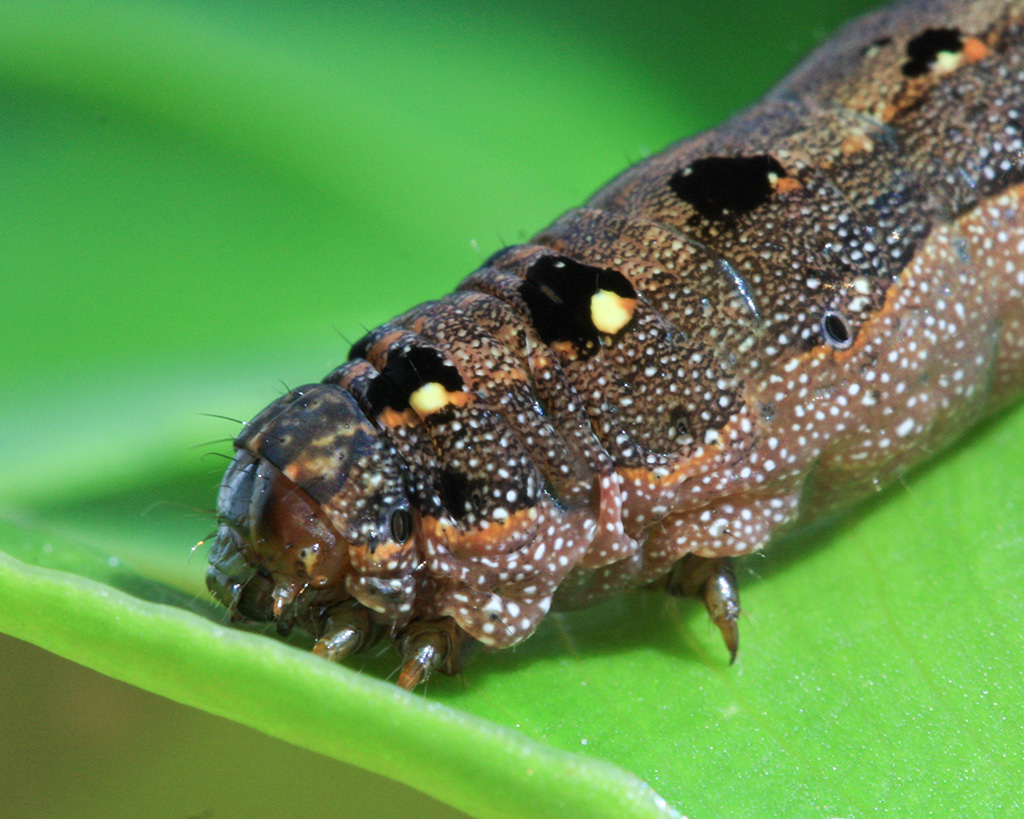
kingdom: Animalia
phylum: Arthropoda
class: Insecta
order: Lepidoptera
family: Noctuidae
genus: Spodoptera
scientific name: Spodoptera littoralis
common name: Egyptian cotton leafworm
